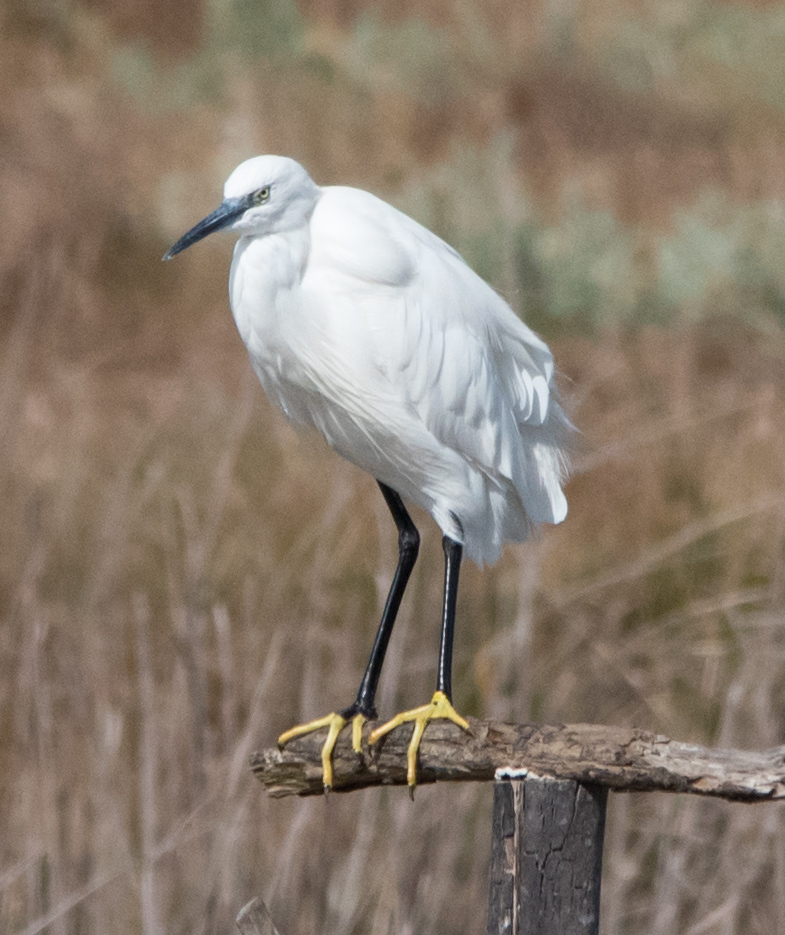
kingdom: Animalia
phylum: Chordata
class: Aves
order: Pelecaniformes
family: Ardeidae
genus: Egretta
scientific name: Egretta garzetta
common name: Little egret
